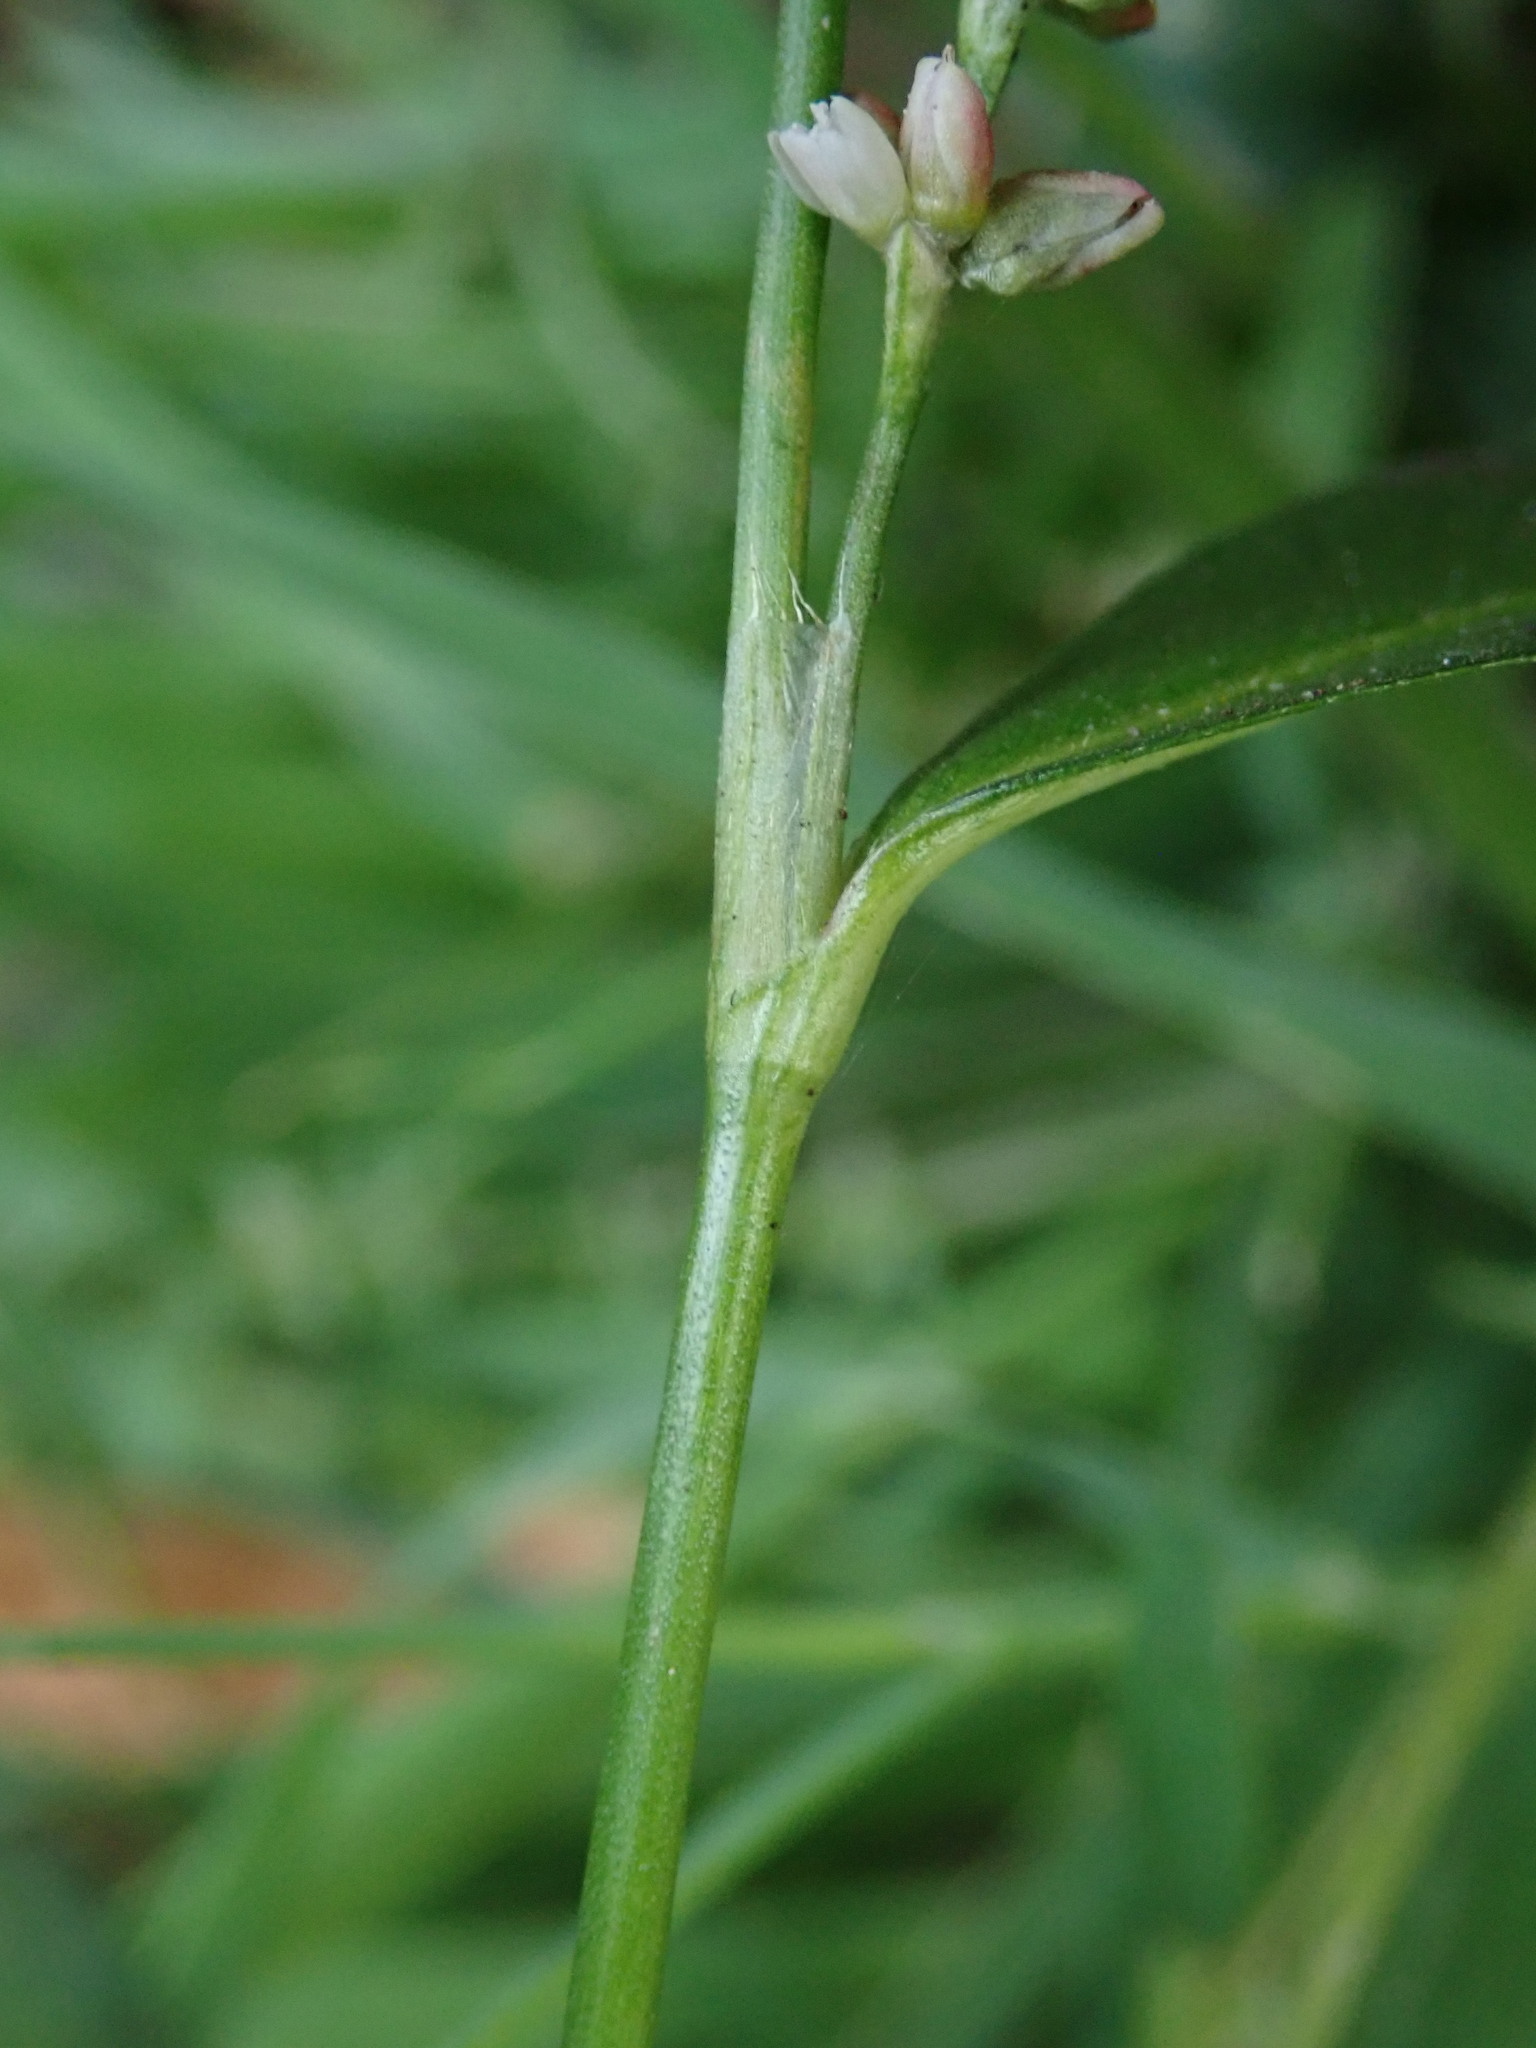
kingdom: Plantae
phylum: Tracheophyta
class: Magnoliopsida
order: Caryophyllales
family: Polygonaceae
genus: Persicaria
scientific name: Persicaria maculosa
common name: Redshank
